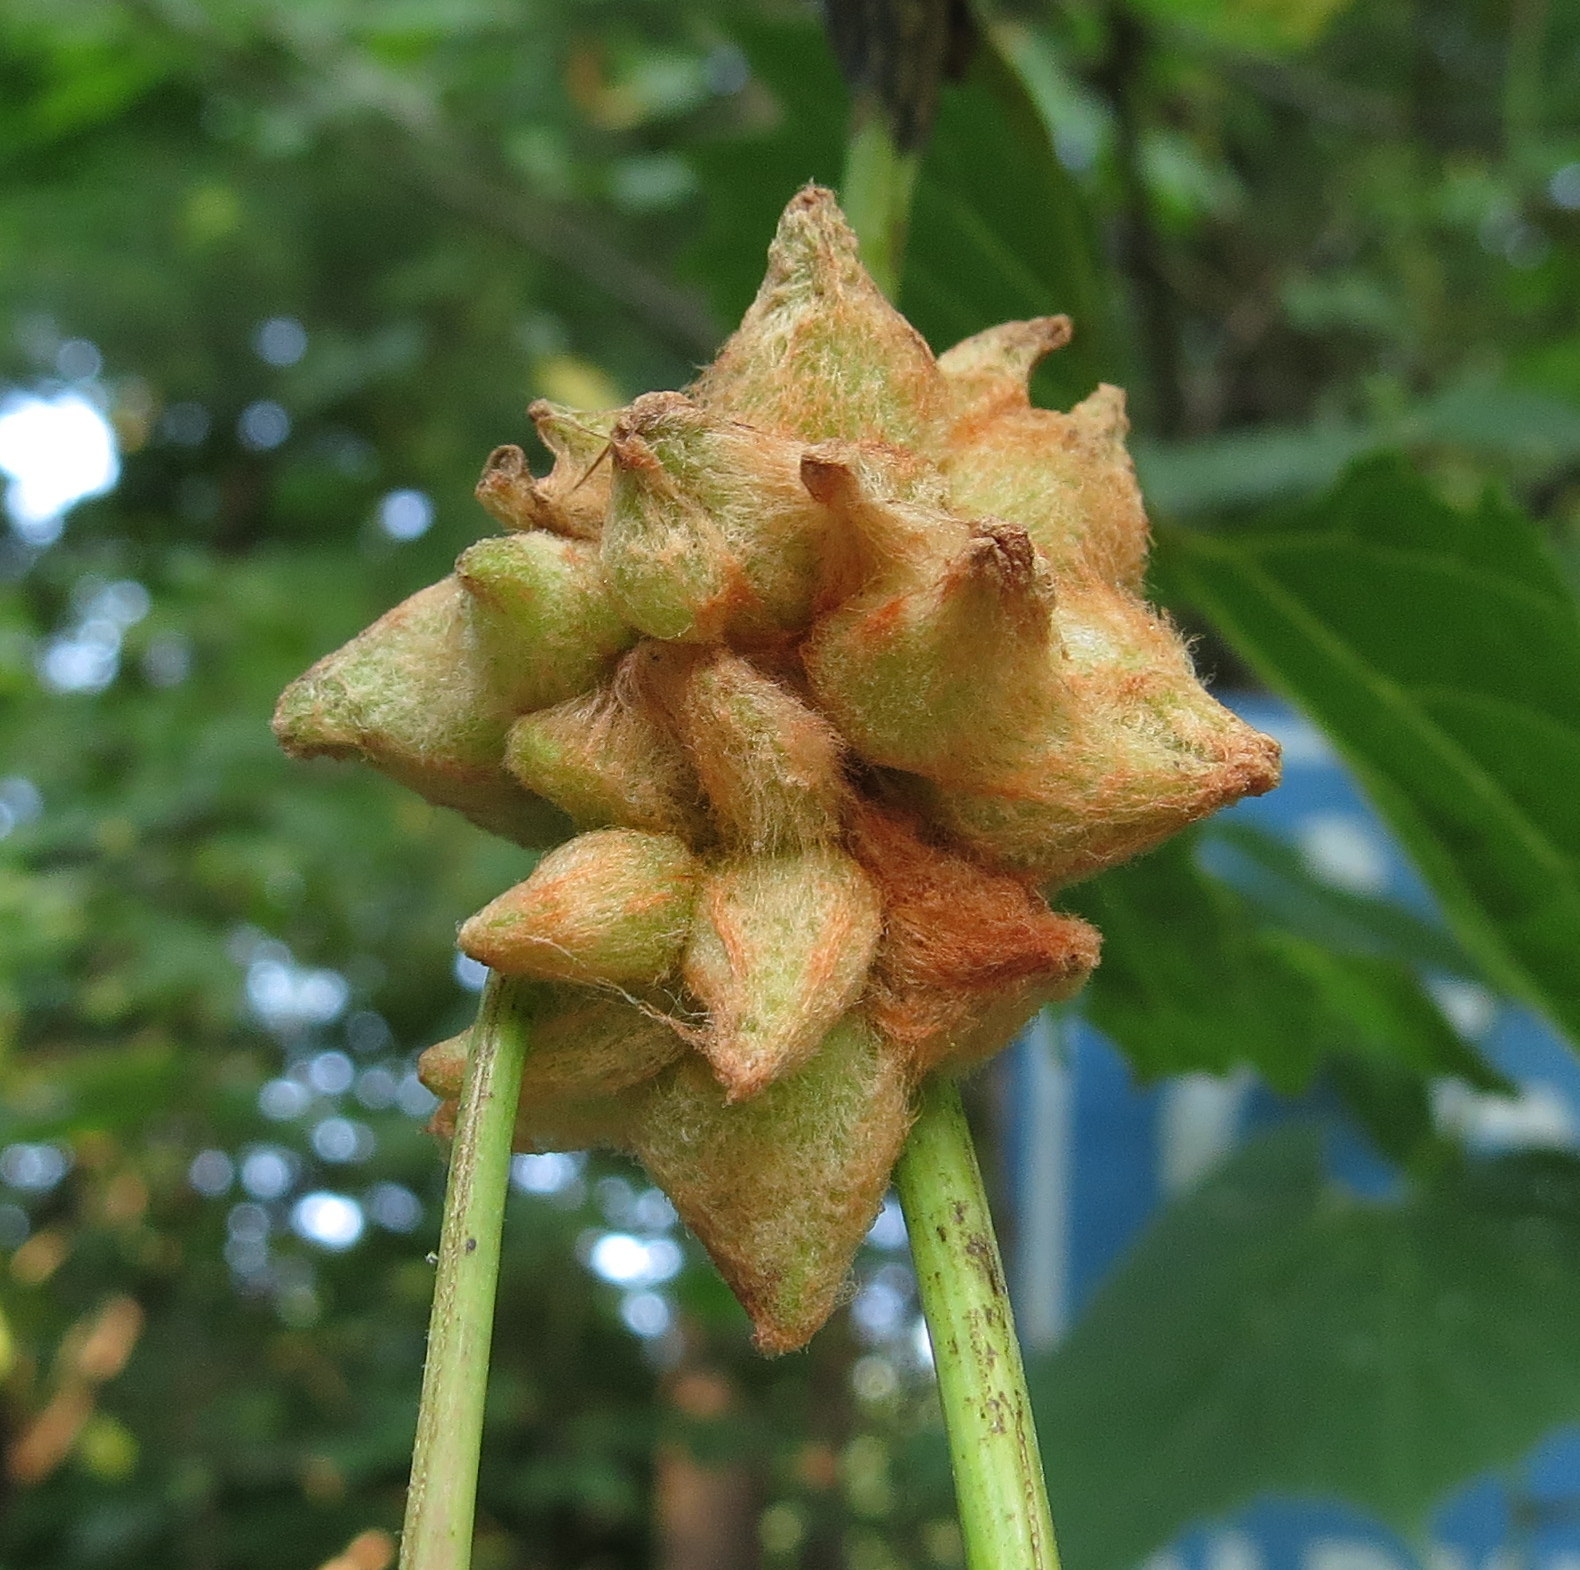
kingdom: Animalia
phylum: Arthropoda
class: Insecta
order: Diptera
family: Cecidomyiidae
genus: Ampelomyia
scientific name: Ampelomyia vitiscoryloides
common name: Grape filbert gall
